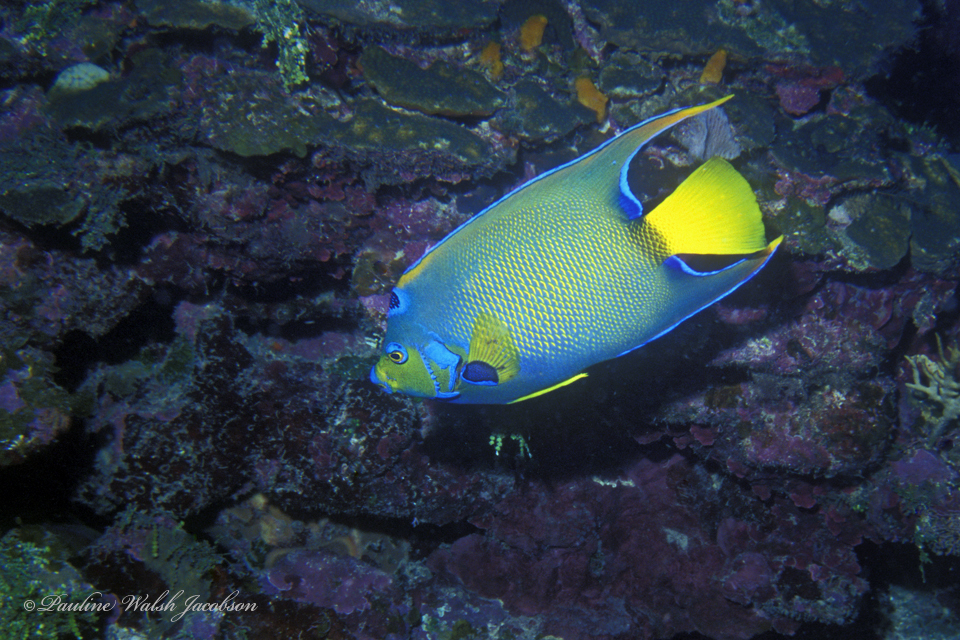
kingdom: Animalia
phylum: Chordata
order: Perciformes
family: Pomacanthidae
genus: Holacanthus
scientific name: Holacanthus ciliaris
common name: Queen angelfish
